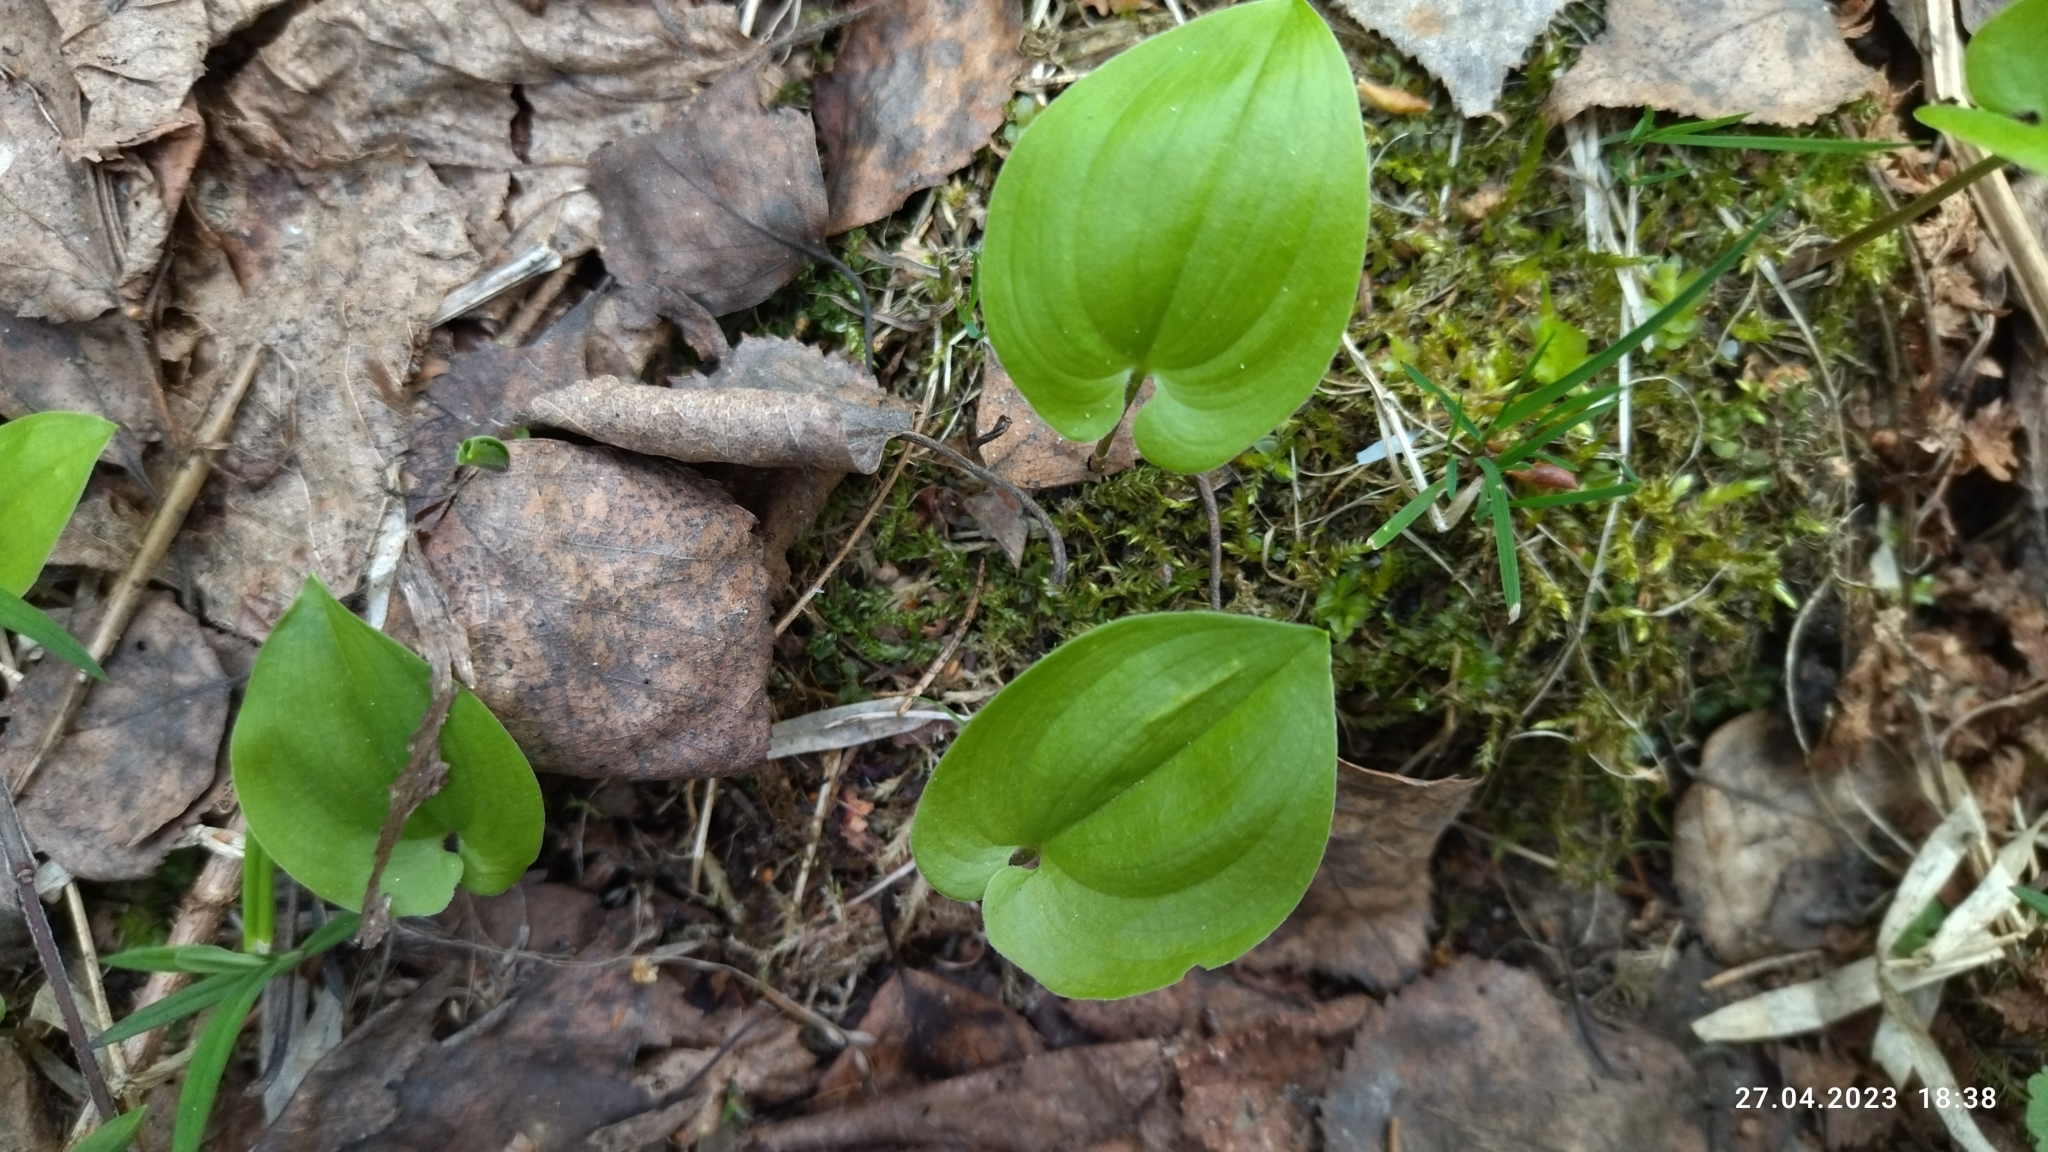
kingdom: Plantae
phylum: Tracheophyta
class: Liliopsida
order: Asparagales
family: Asparagaceae
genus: Maianthemum
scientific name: Maianthemum bifolium
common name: May lily
